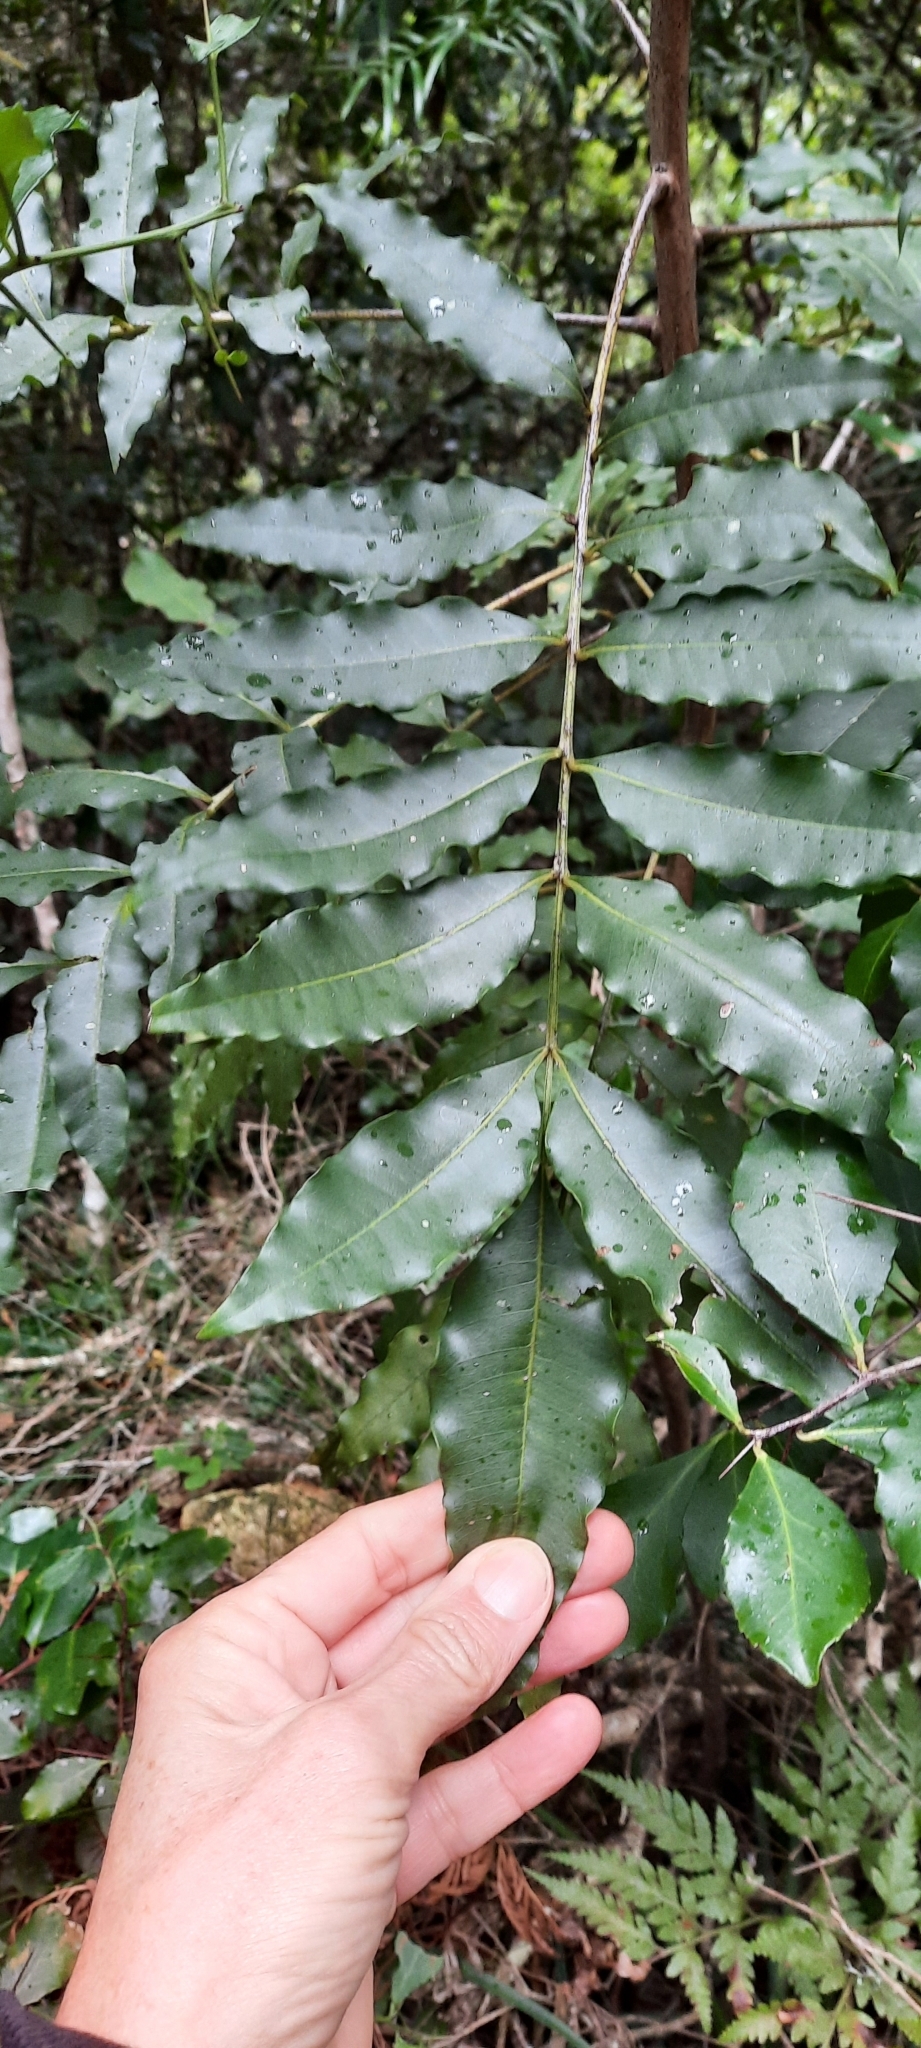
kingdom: Plantae
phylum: Tracheophyta
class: Magnoliopsida
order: Sapindales
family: Meliaceae
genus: Ekebergia
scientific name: Ekebergia capensis
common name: Cape-ash
